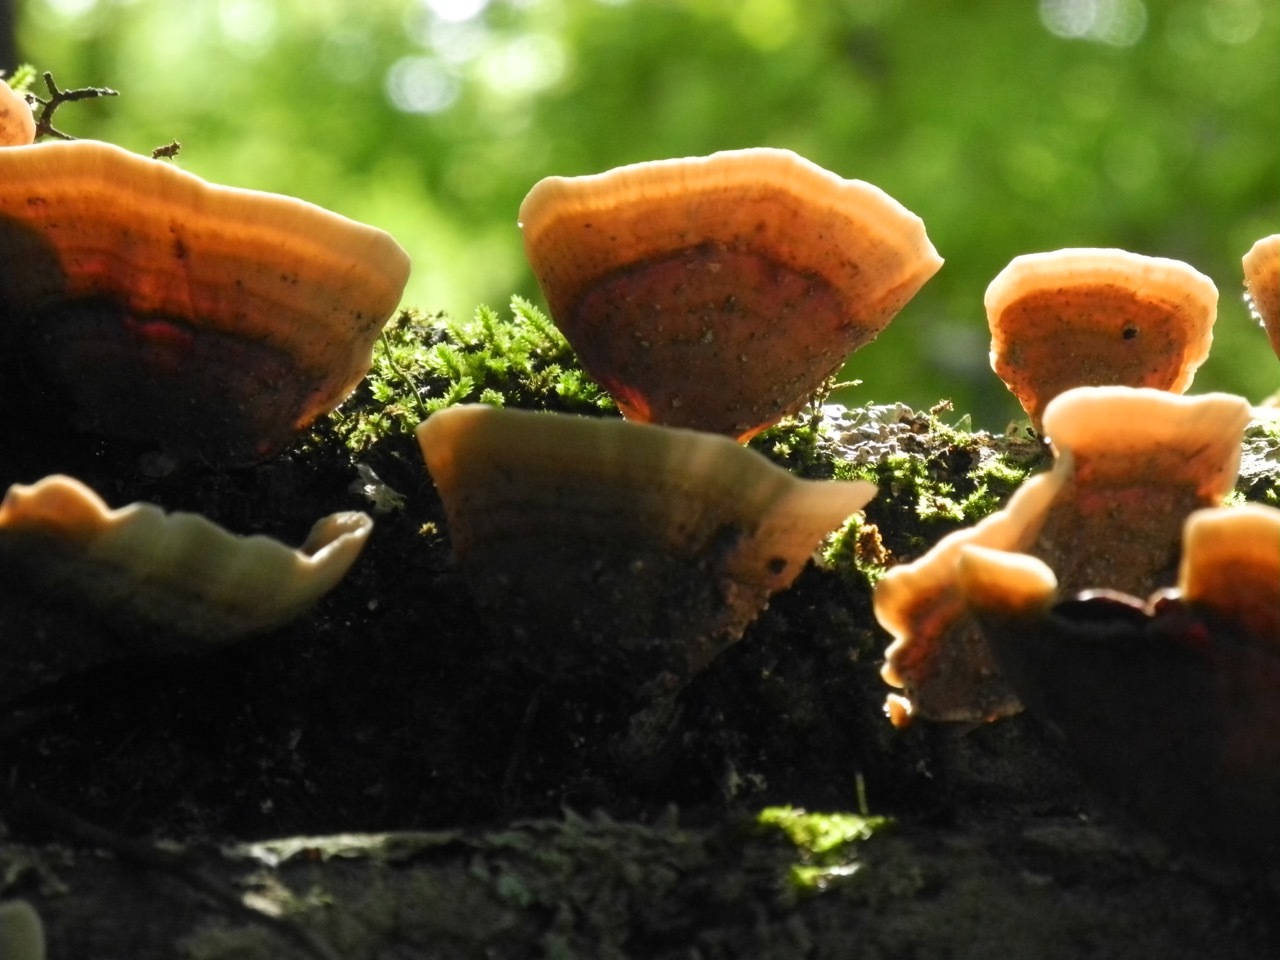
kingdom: Fungi
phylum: Basidiomycota
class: Agaricomycetes
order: Polyporales
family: Polyporaceae
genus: Trametes
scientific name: Trametes versicolor
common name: Turkeytail
